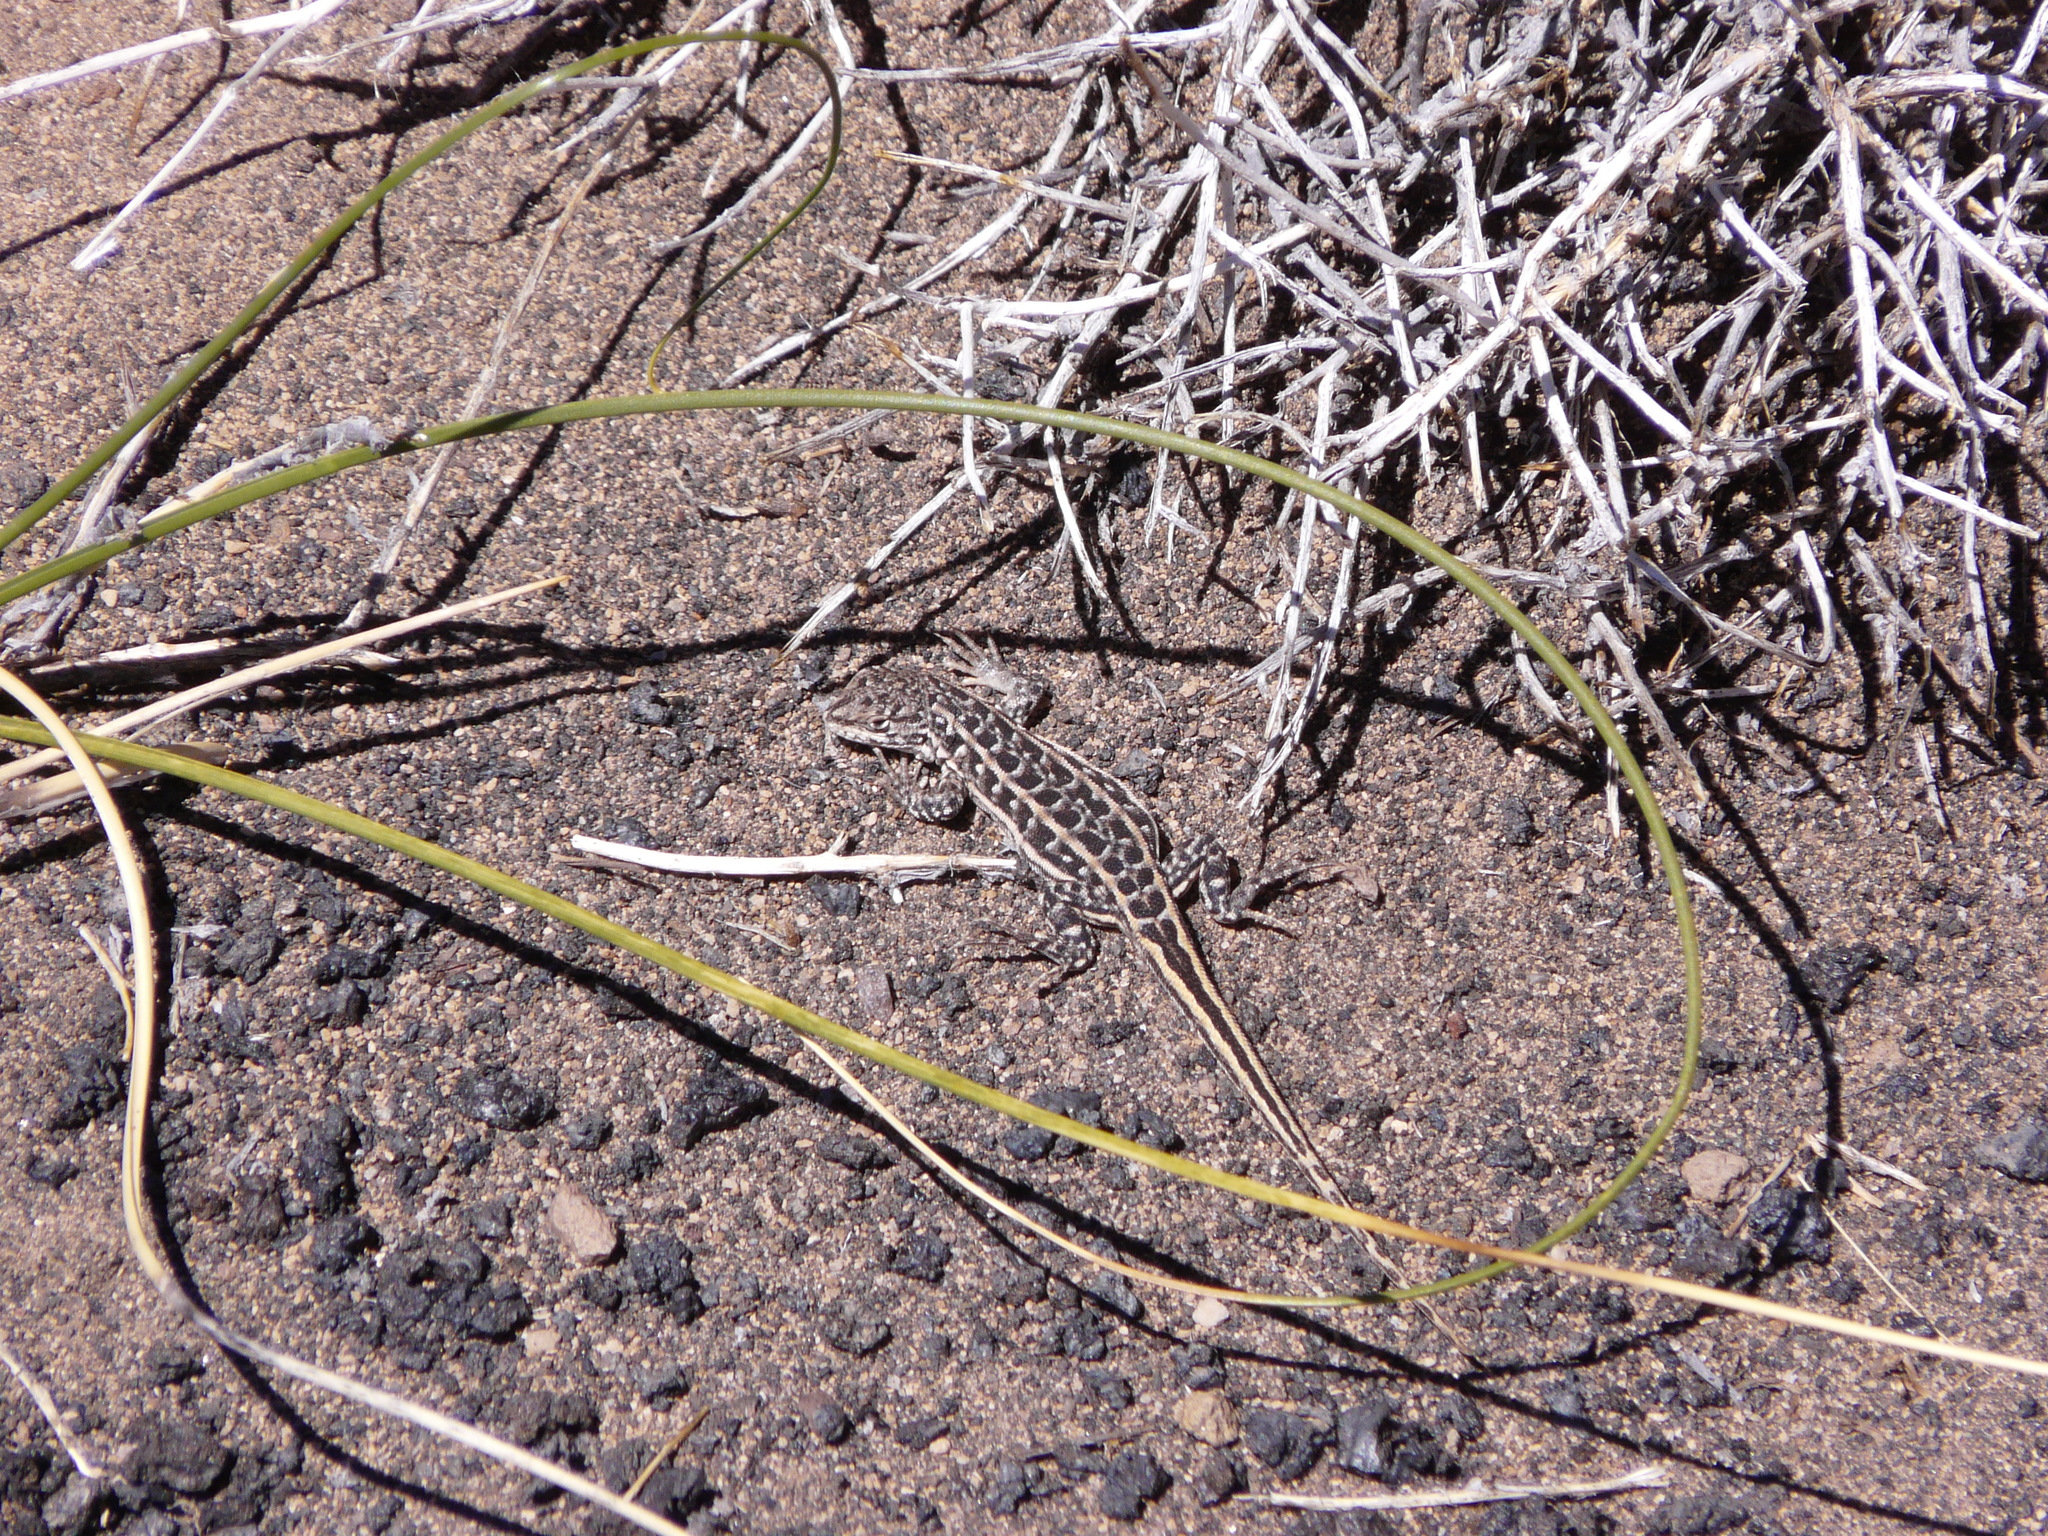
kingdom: Animalia
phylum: Chordata
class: Squamata
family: Liolaemidae
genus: Liolaemus
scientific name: Liolaemus josei
